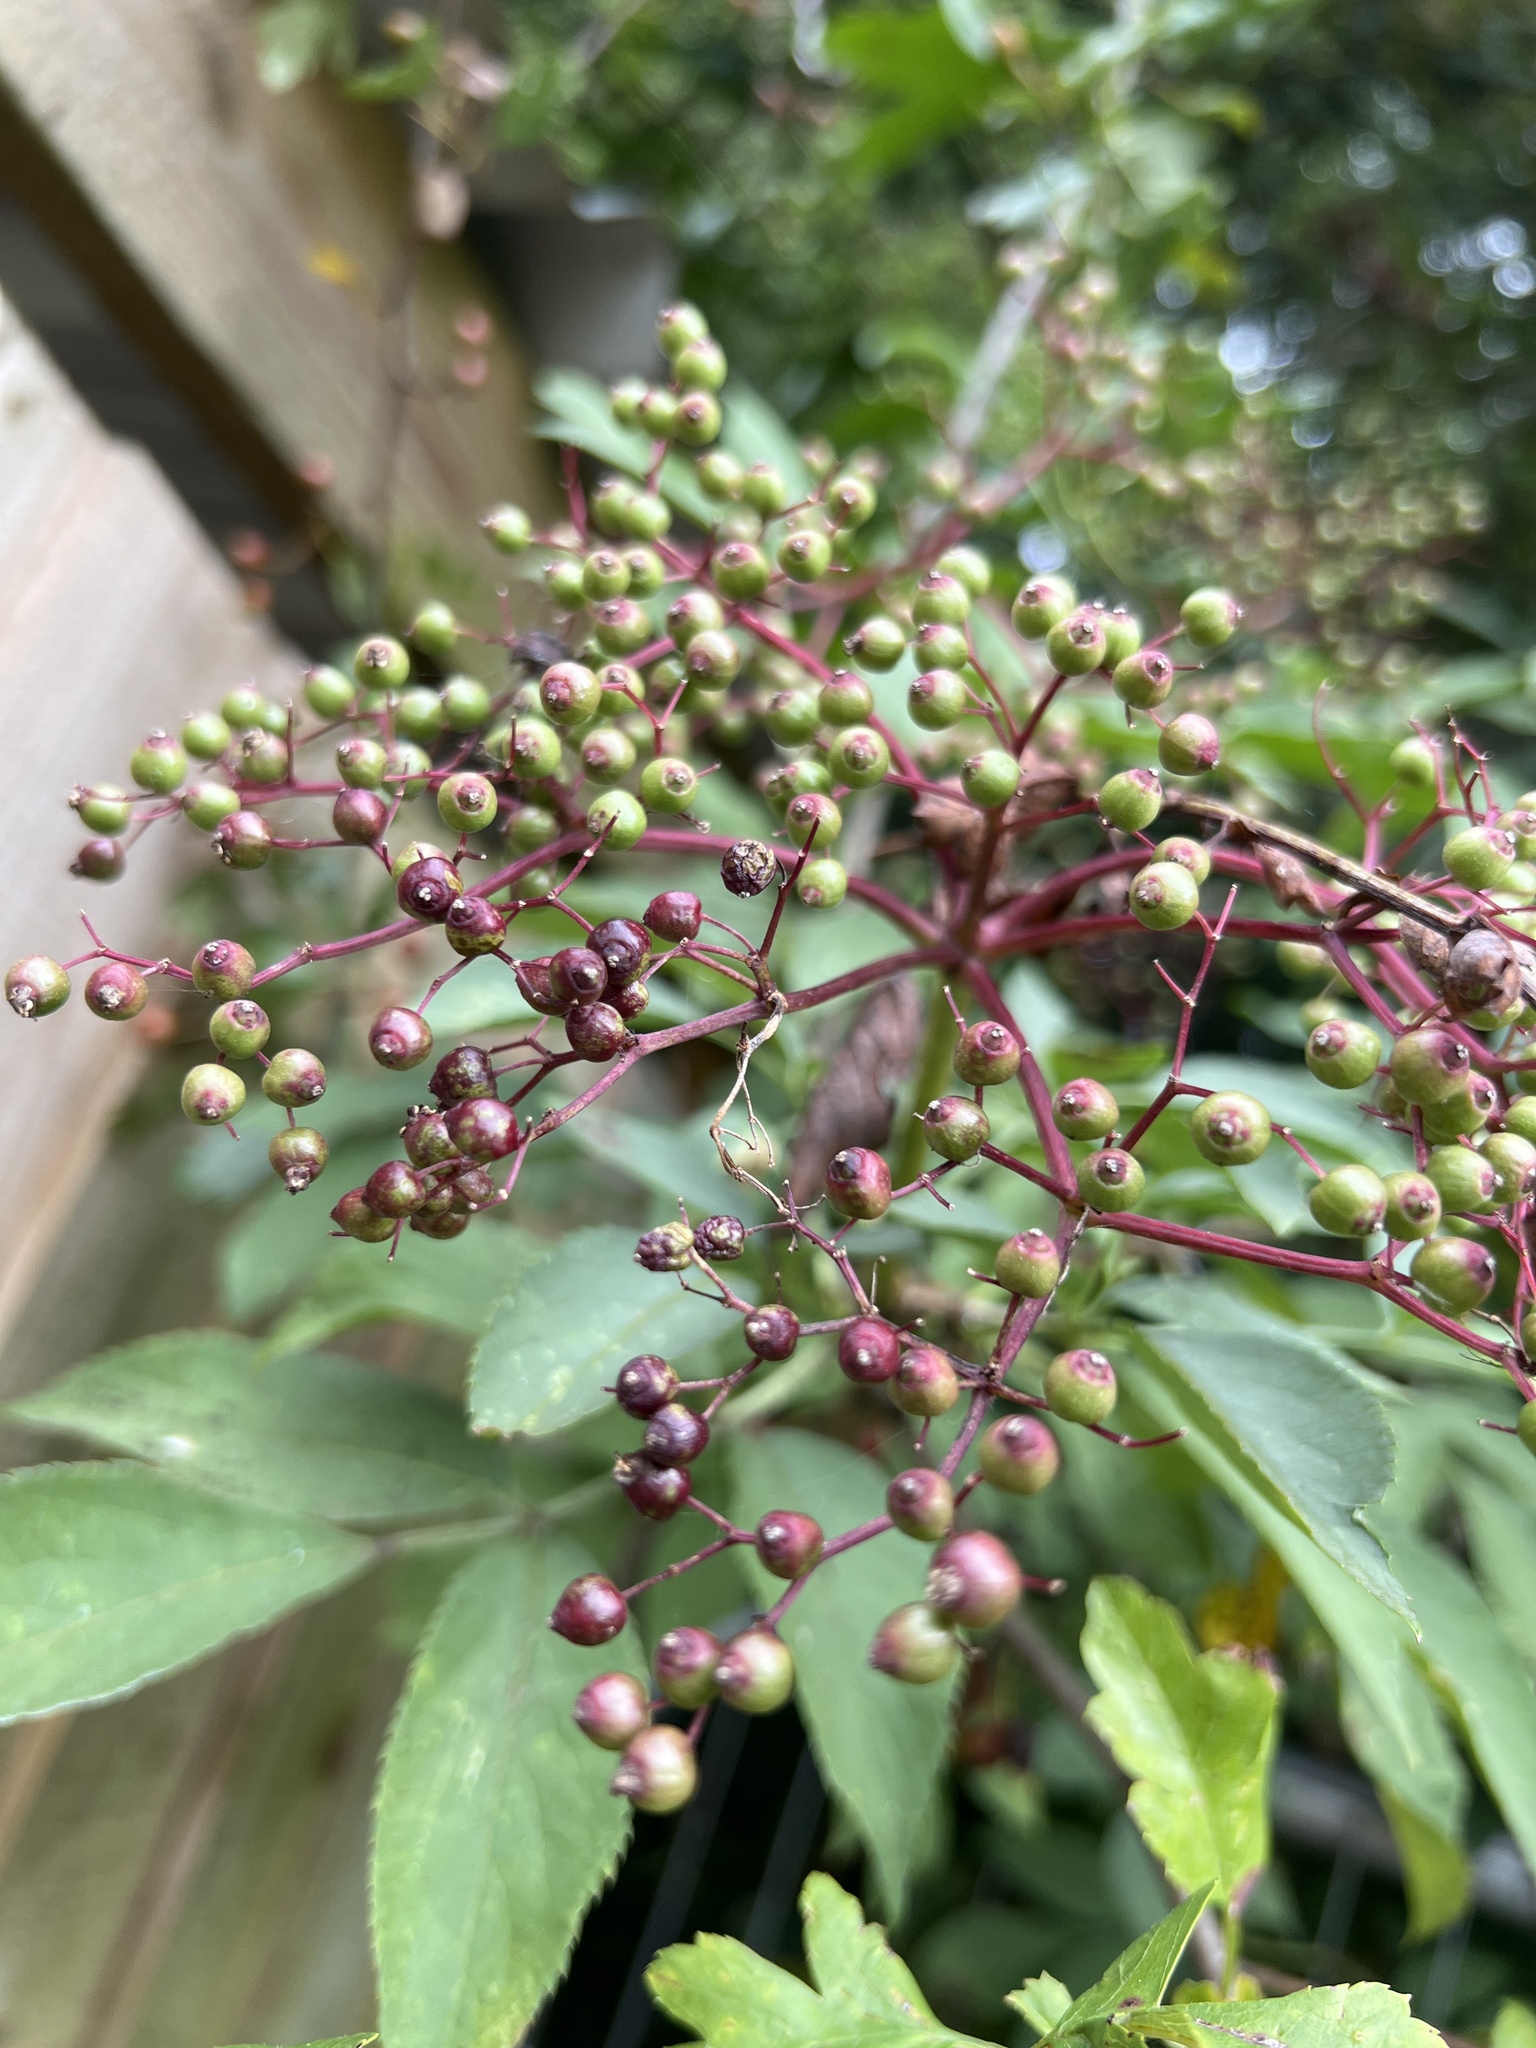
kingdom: Plantae
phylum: Tracheophyta
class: Magnoliopsida
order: Dipsacales
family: Viburnaceae
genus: Sambucus
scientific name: Sambucus nigra
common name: Elder
